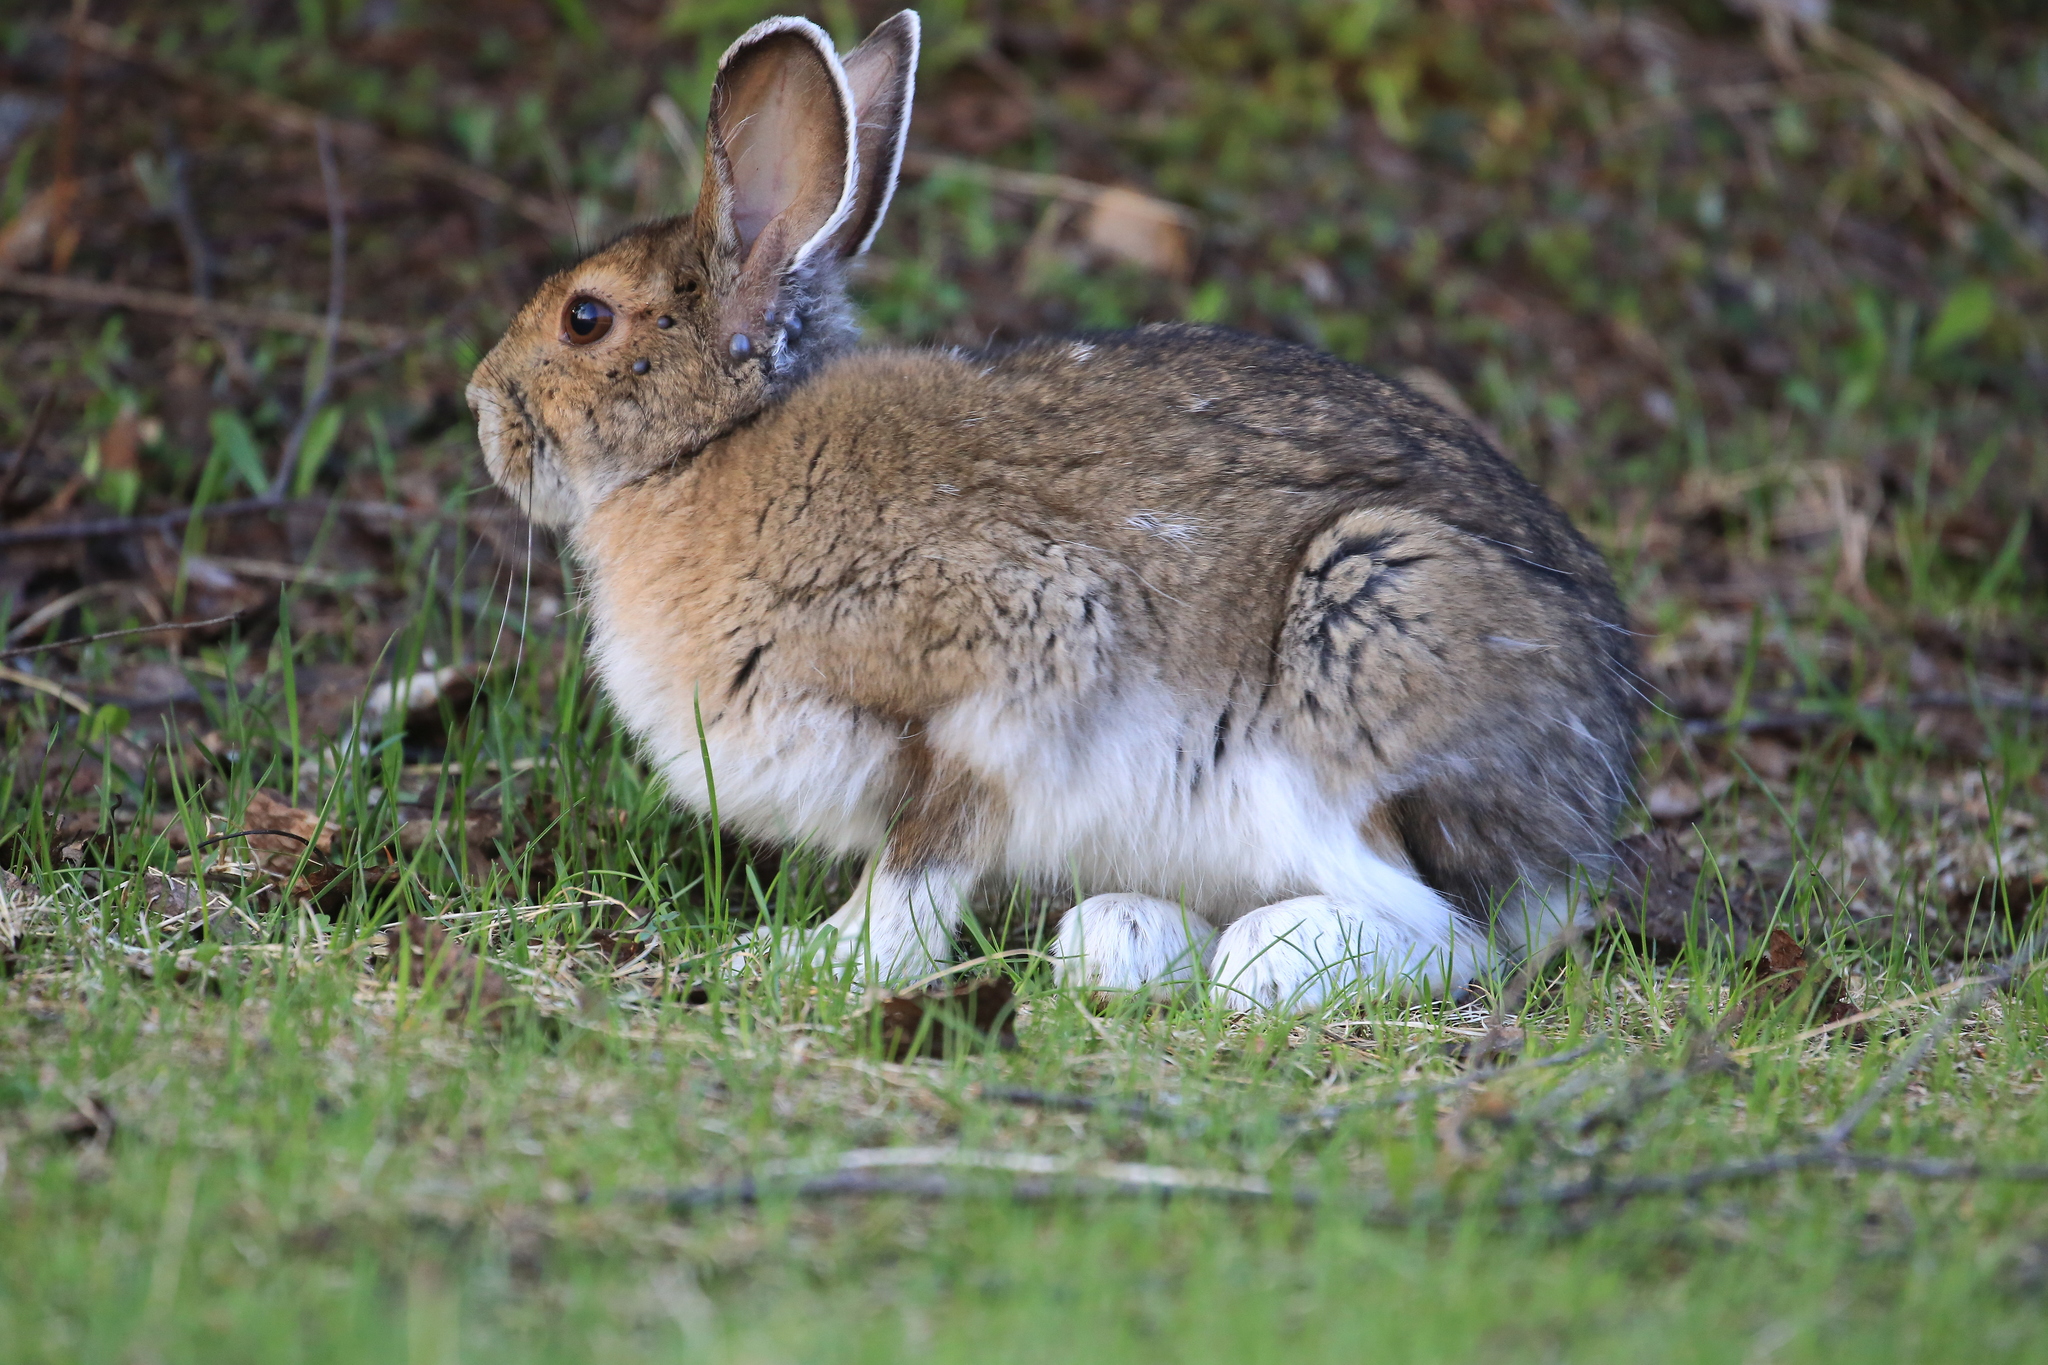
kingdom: Animalia
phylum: Chordata
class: Mammalia
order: Lagomorpha
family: Leporidae
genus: Lepus
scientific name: Lepus americanus
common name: Snowshoe hare
